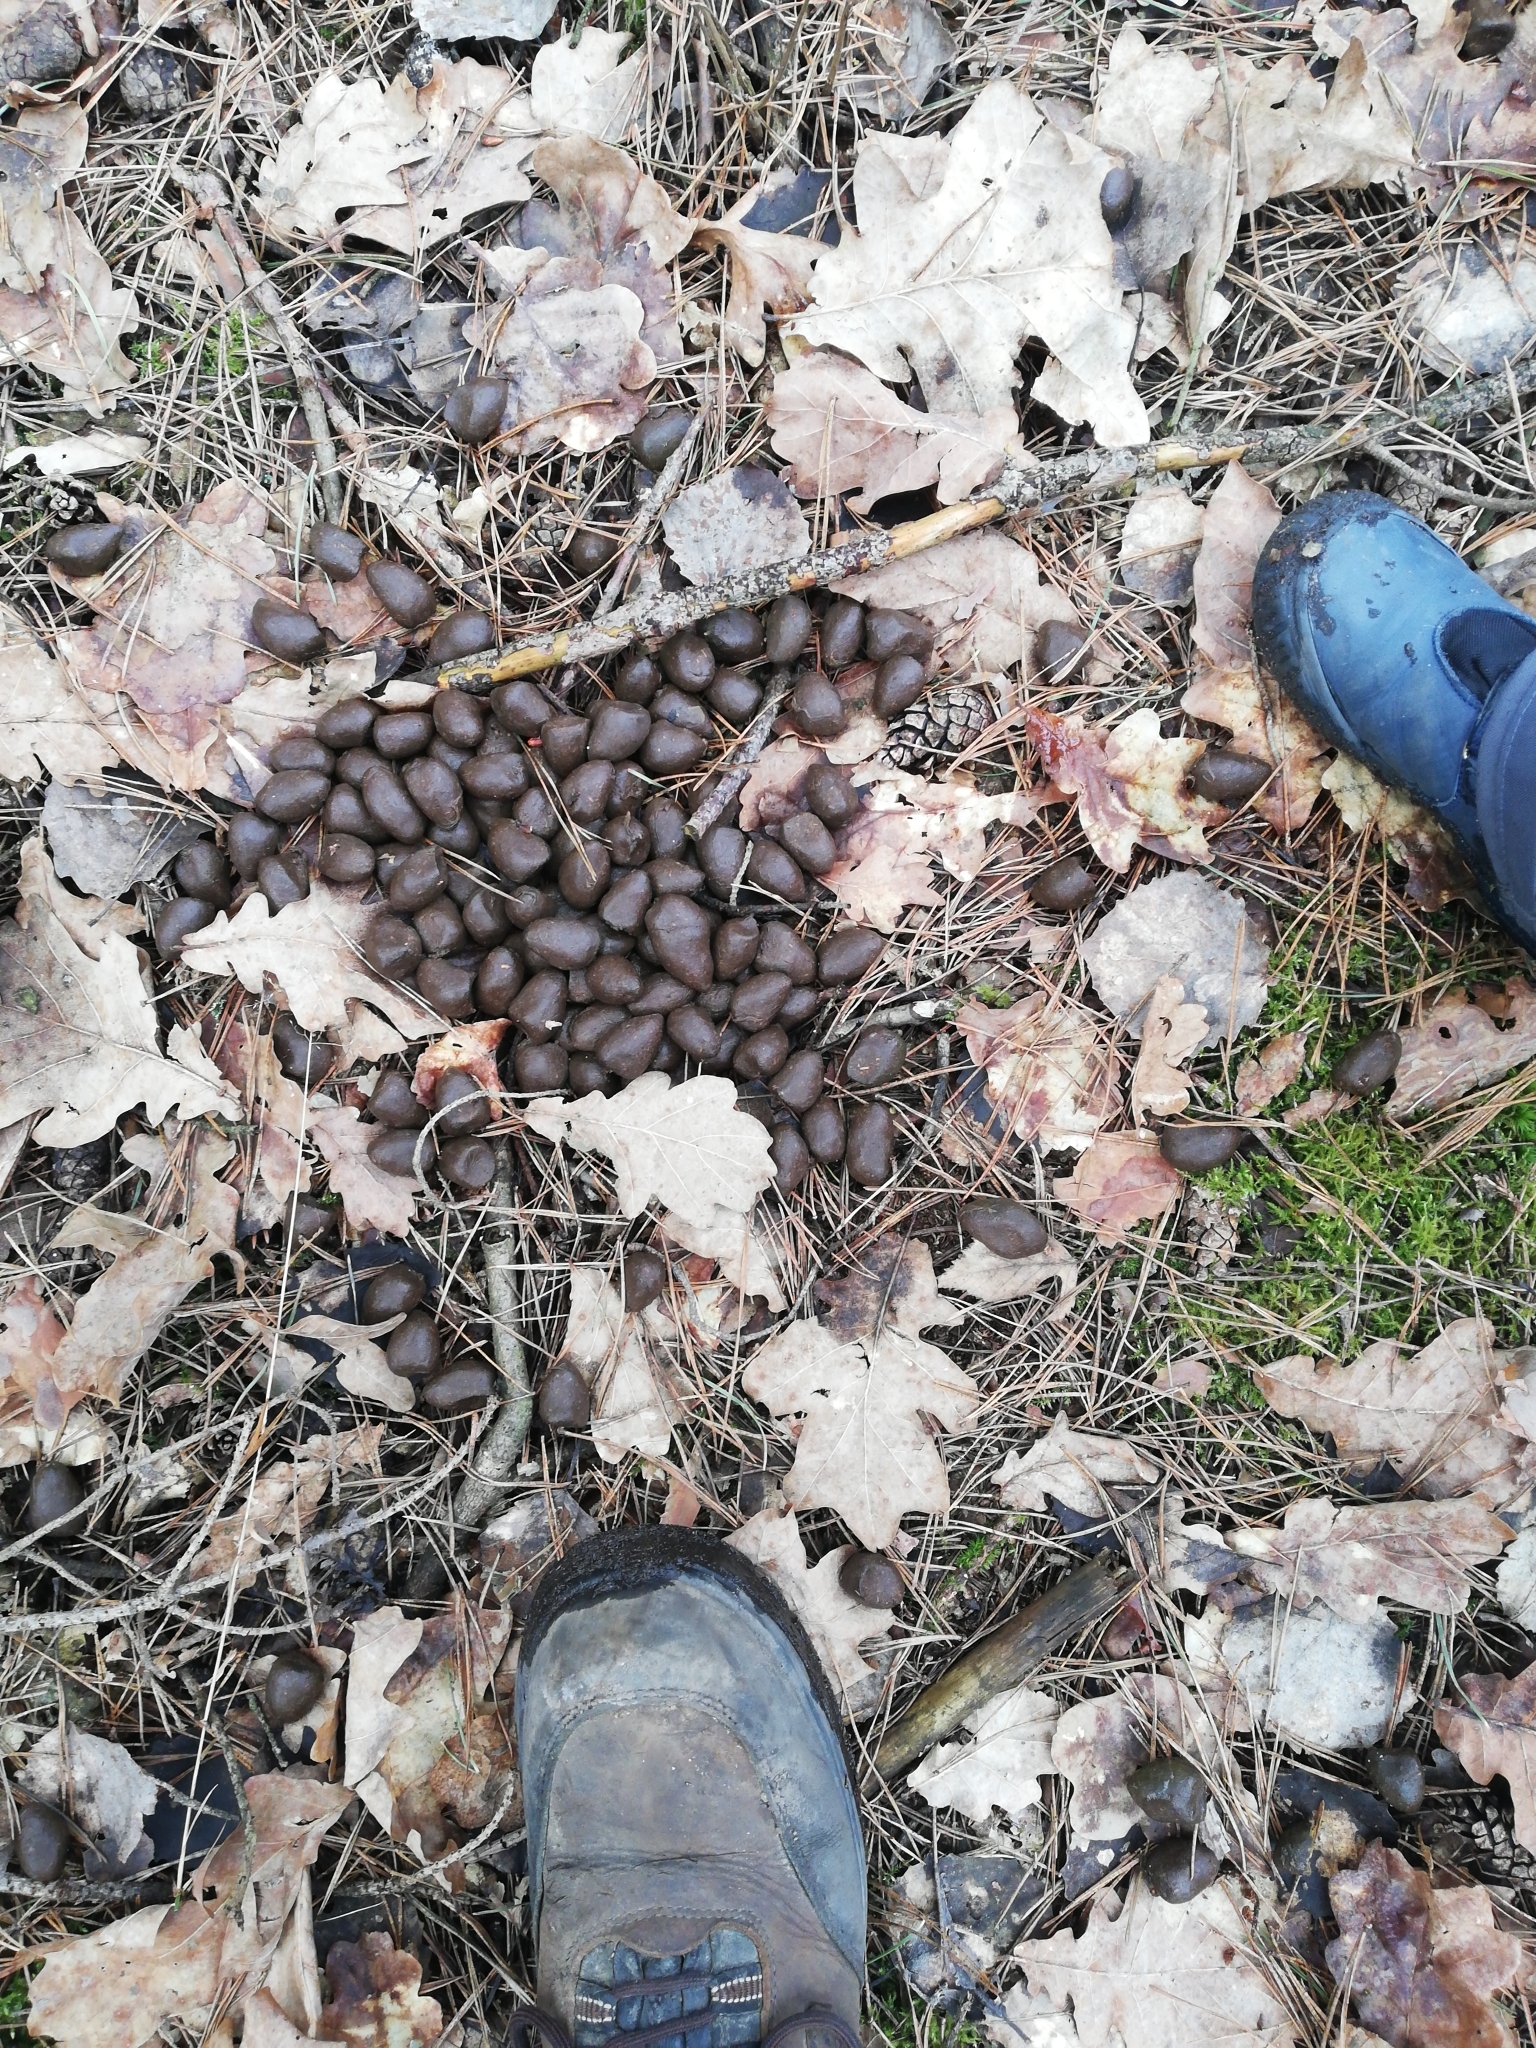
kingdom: Animalia
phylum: Chordata
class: Mammalia
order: Artiodactyla
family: Cervidae
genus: Alces
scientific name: Alces alces
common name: Moose
